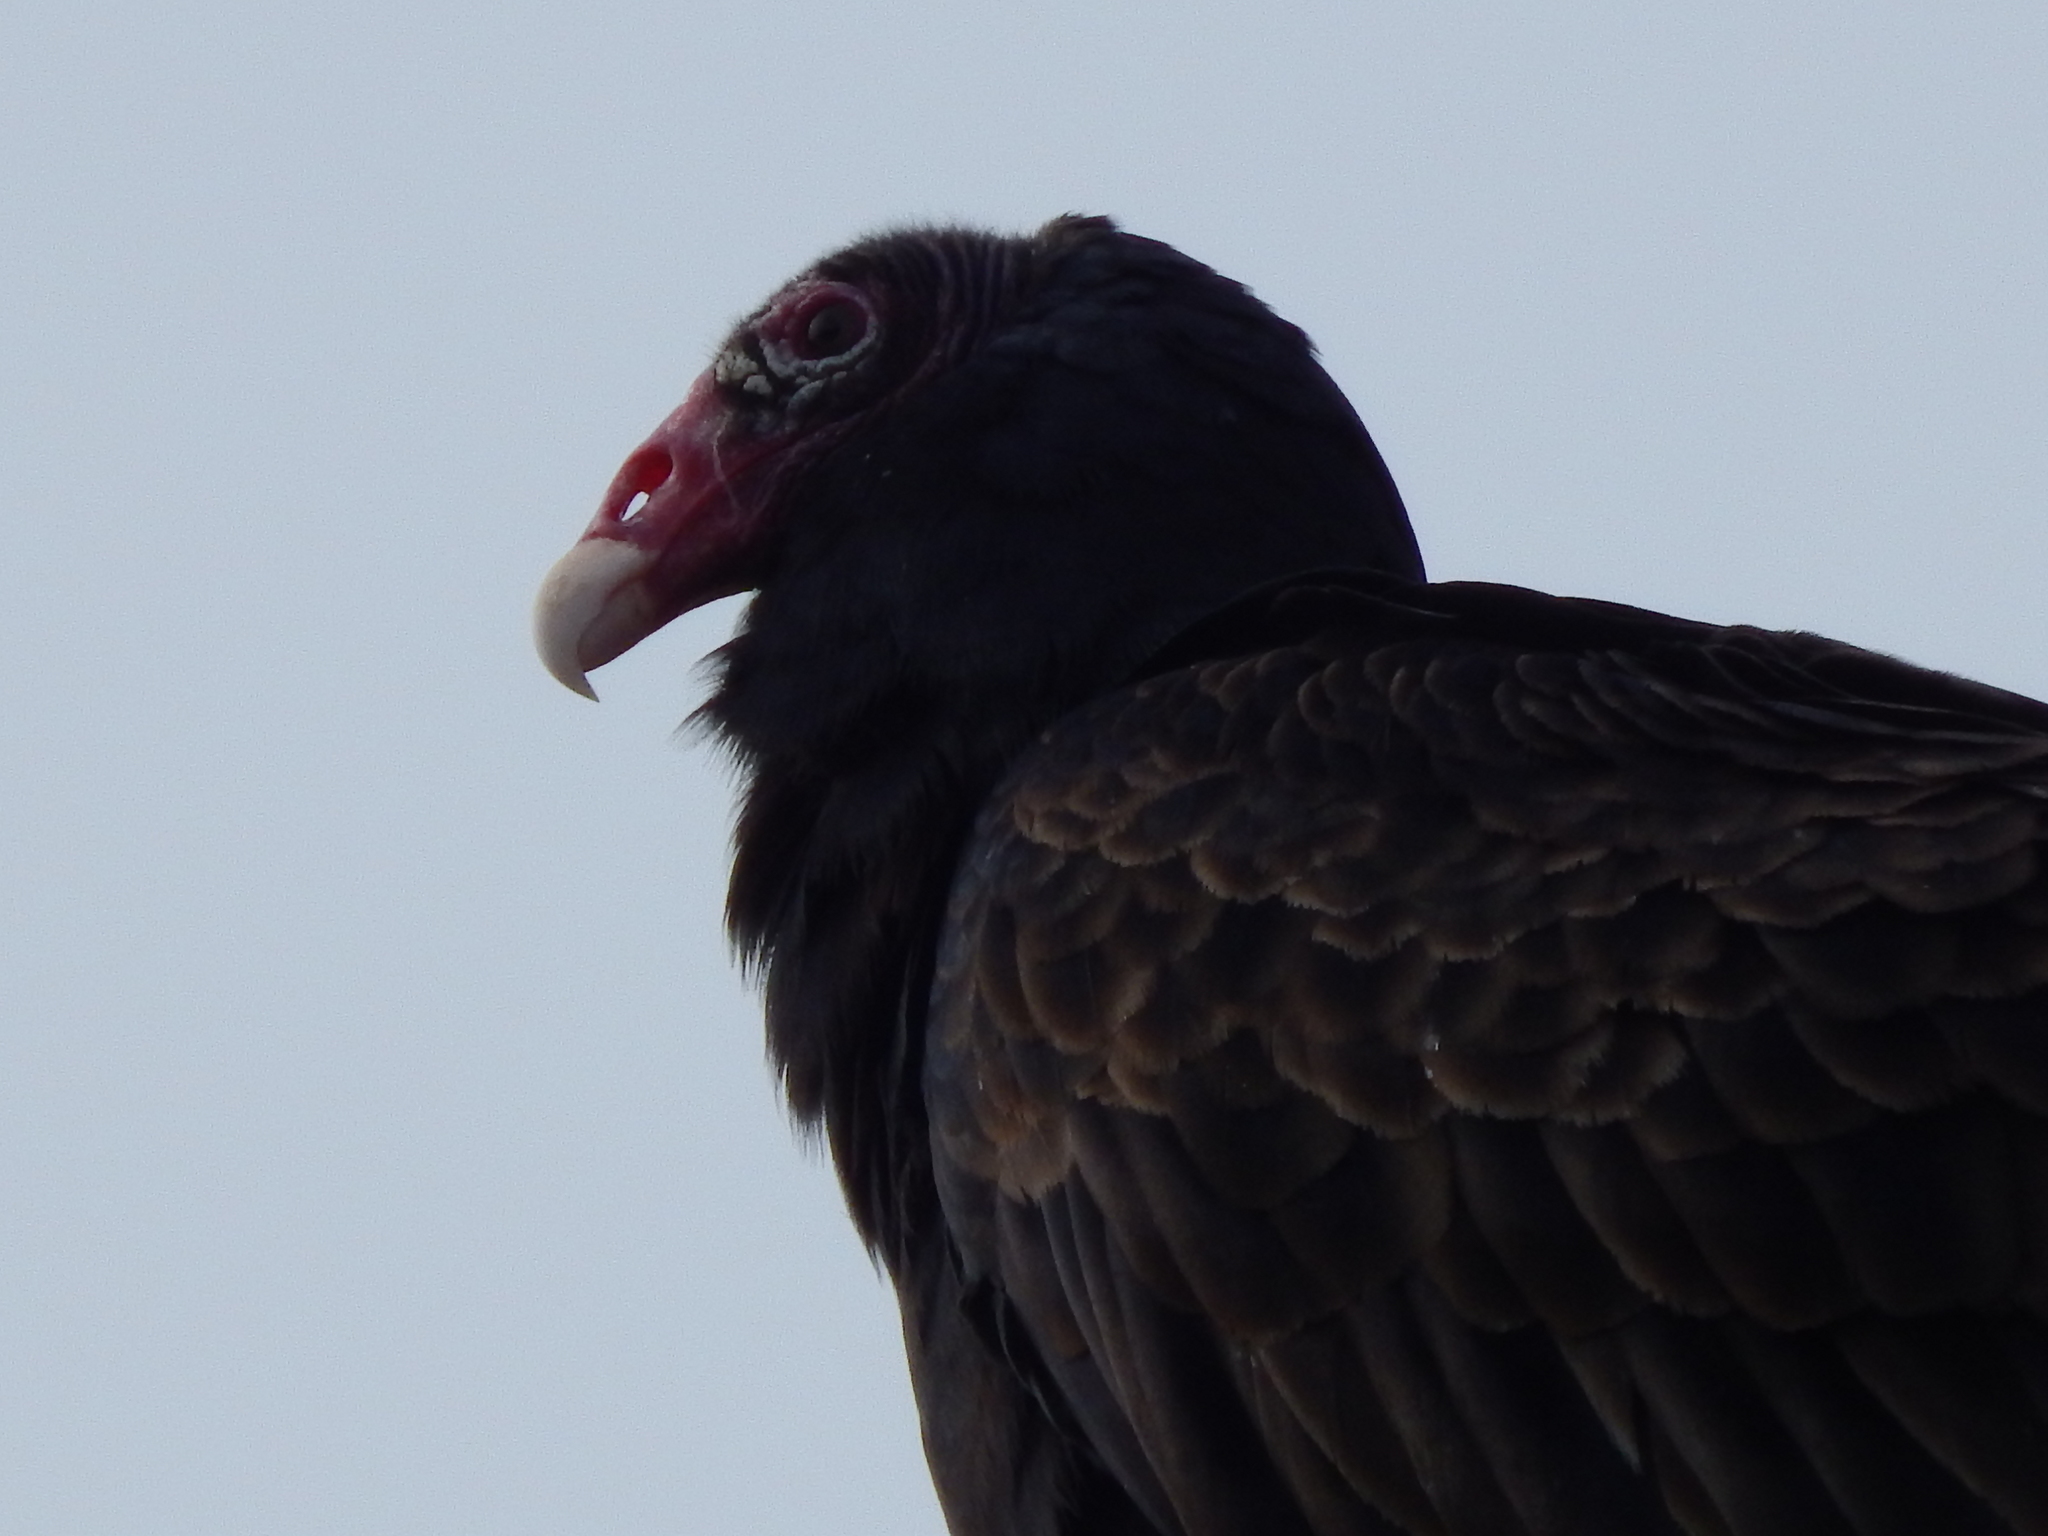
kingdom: Animalia
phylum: Chordata
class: Aves
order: Accipitriformes
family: Cathartidae
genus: Cathartes
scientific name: Cathartes aura
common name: Turkey vulture
